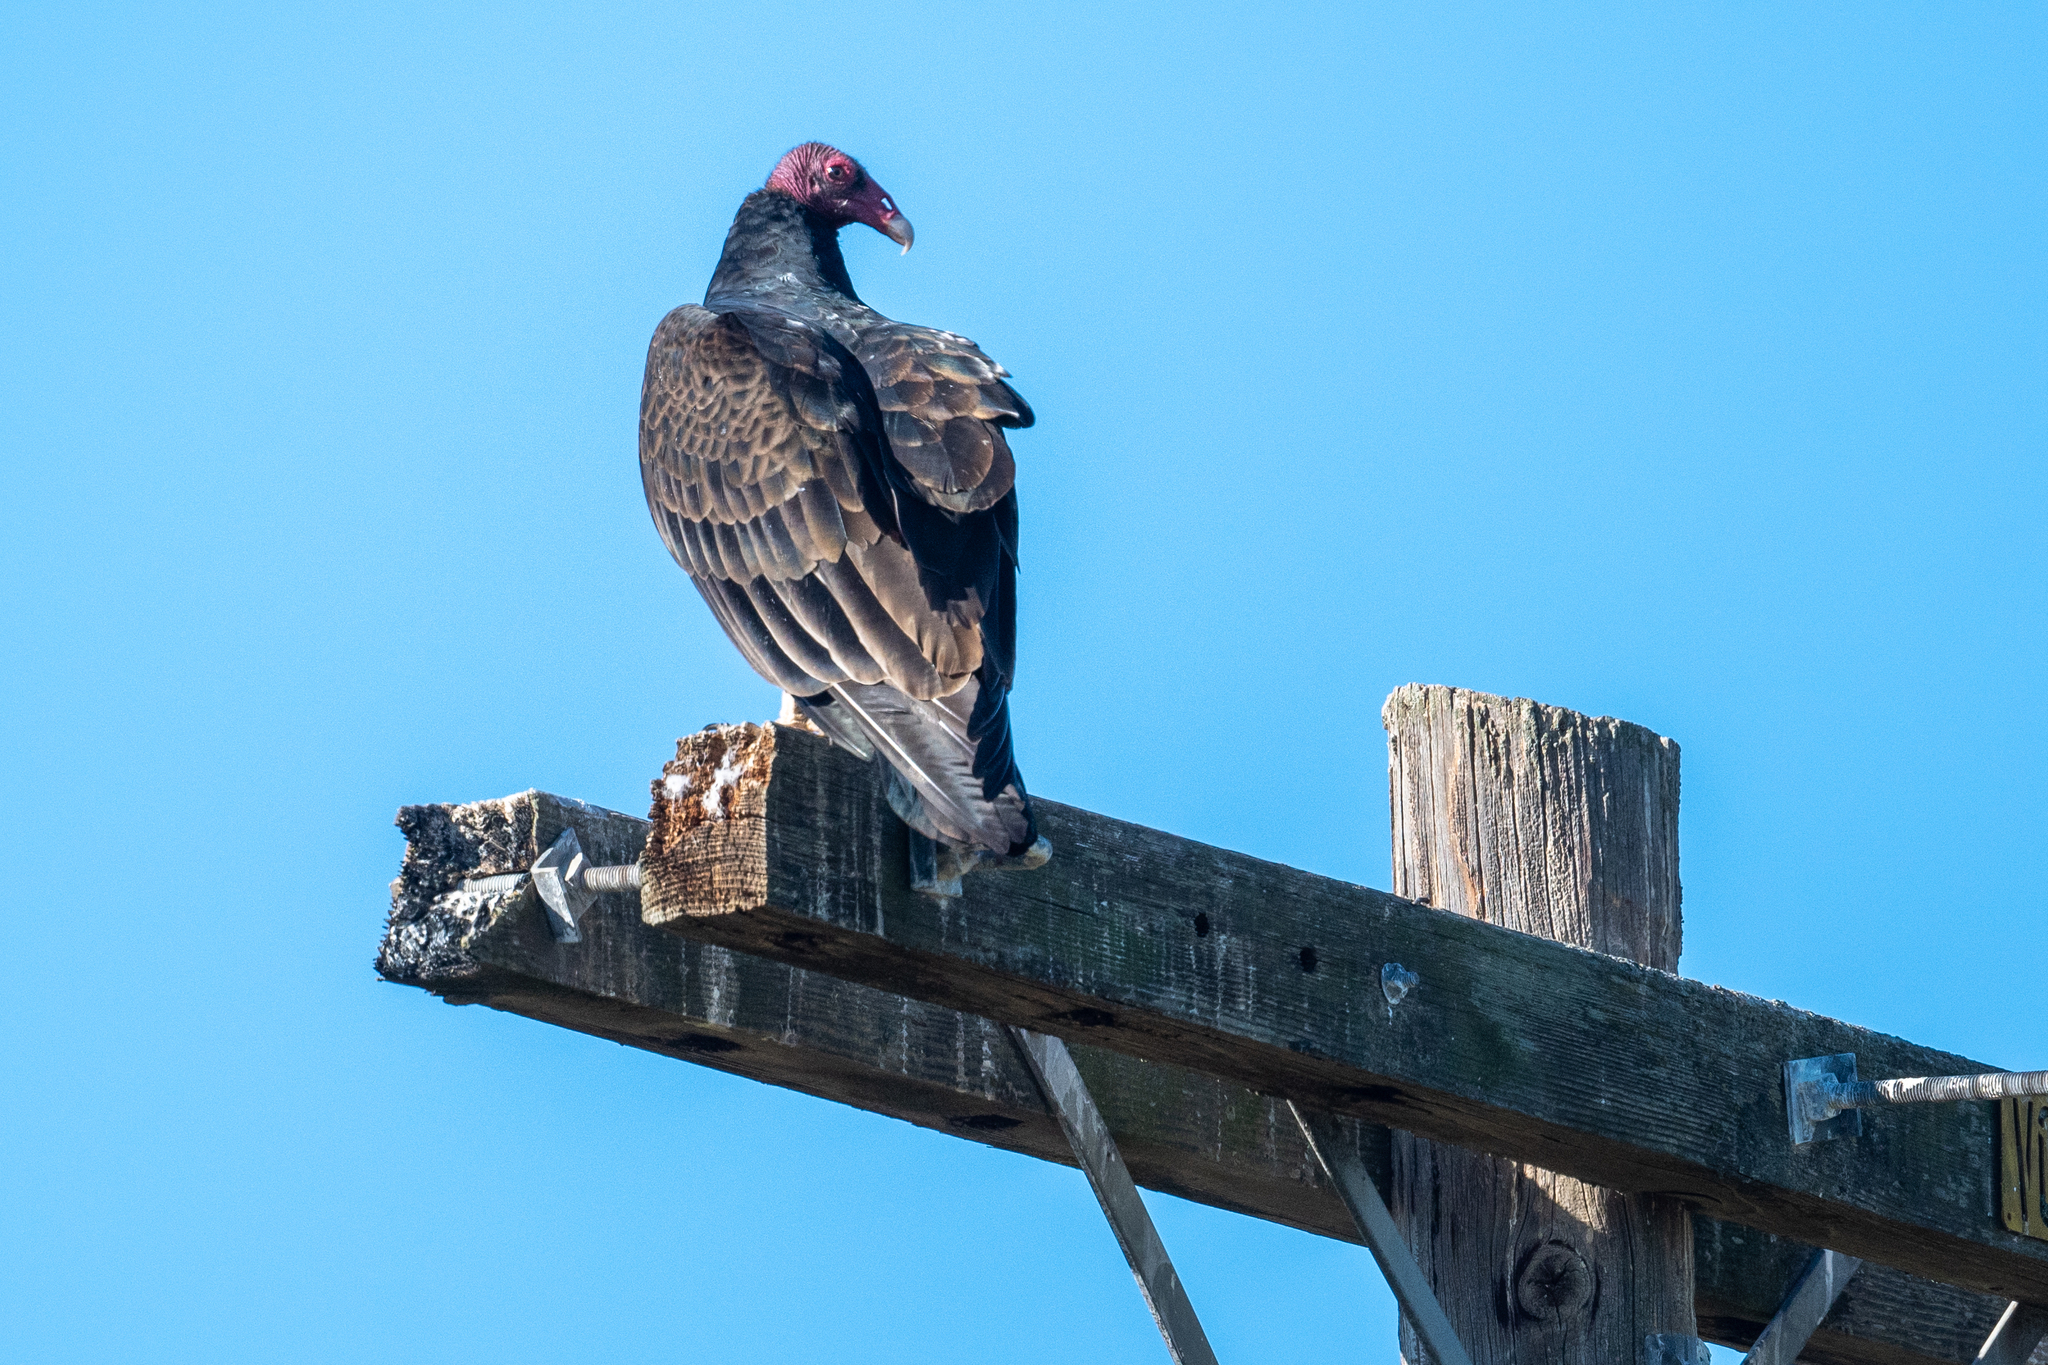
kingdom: Animalia
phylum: Chordata
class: Aves
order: Accipitriformes
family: Cathartidae
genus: Cathartes
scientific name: Cathartes aura
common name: Turkey vulture
